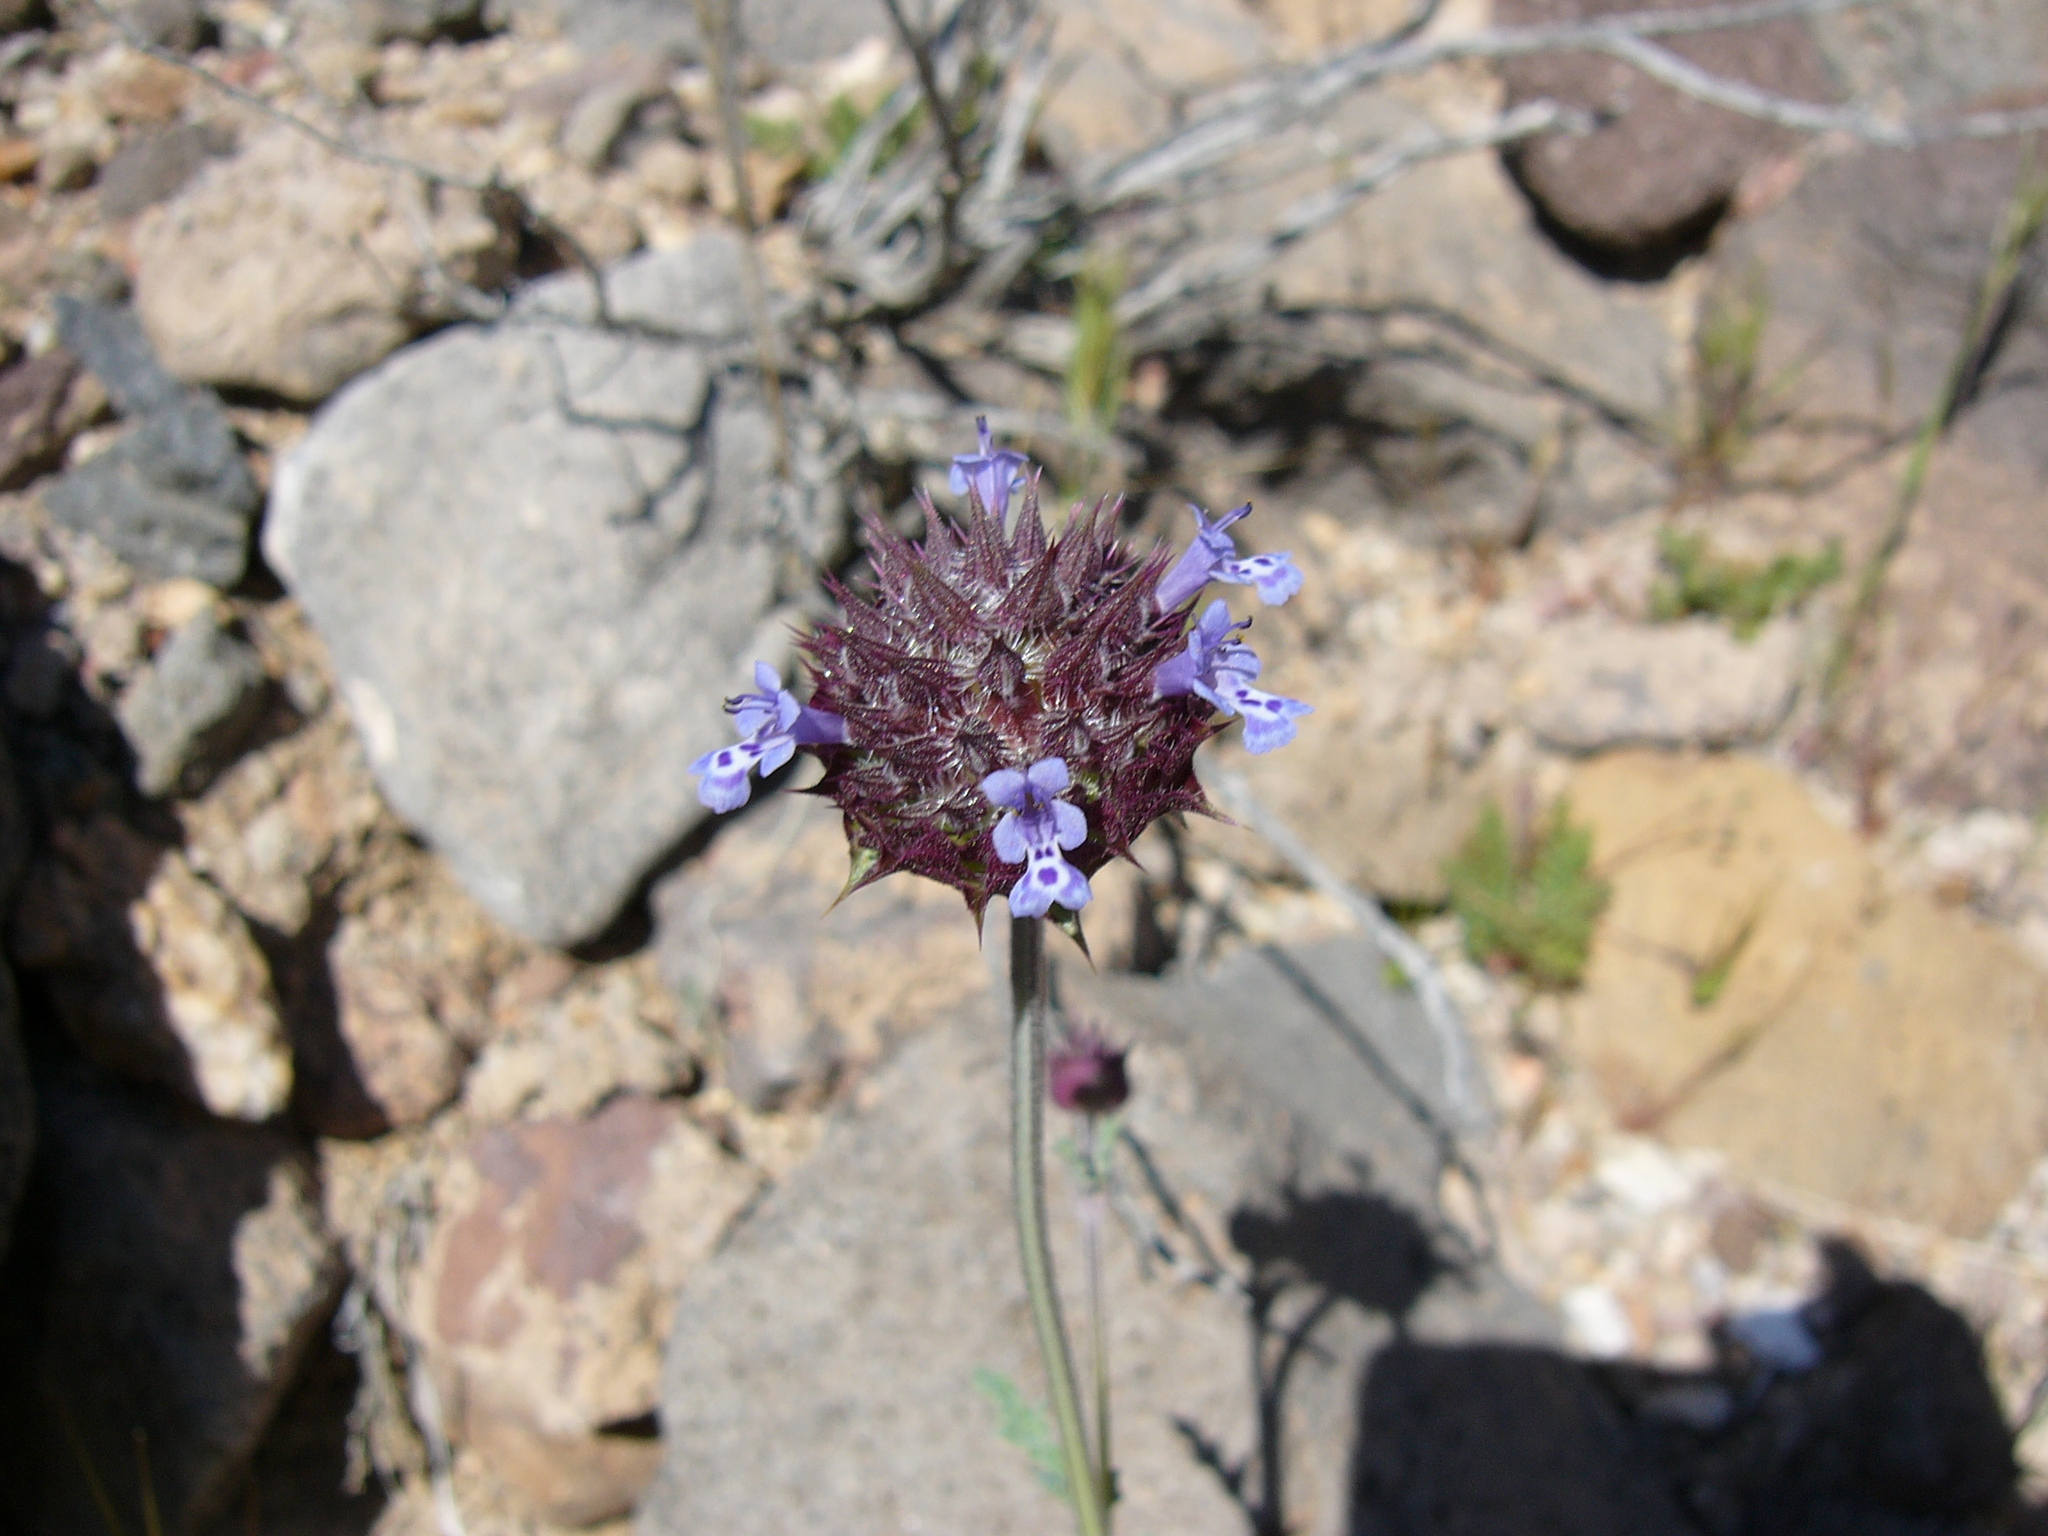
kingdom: Plantae
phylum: Tracheophyta
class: Magnoliopsida
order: Lamiales
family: Lamiaceae
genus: Salvia
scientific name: Salvia columbariae
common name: Chia
